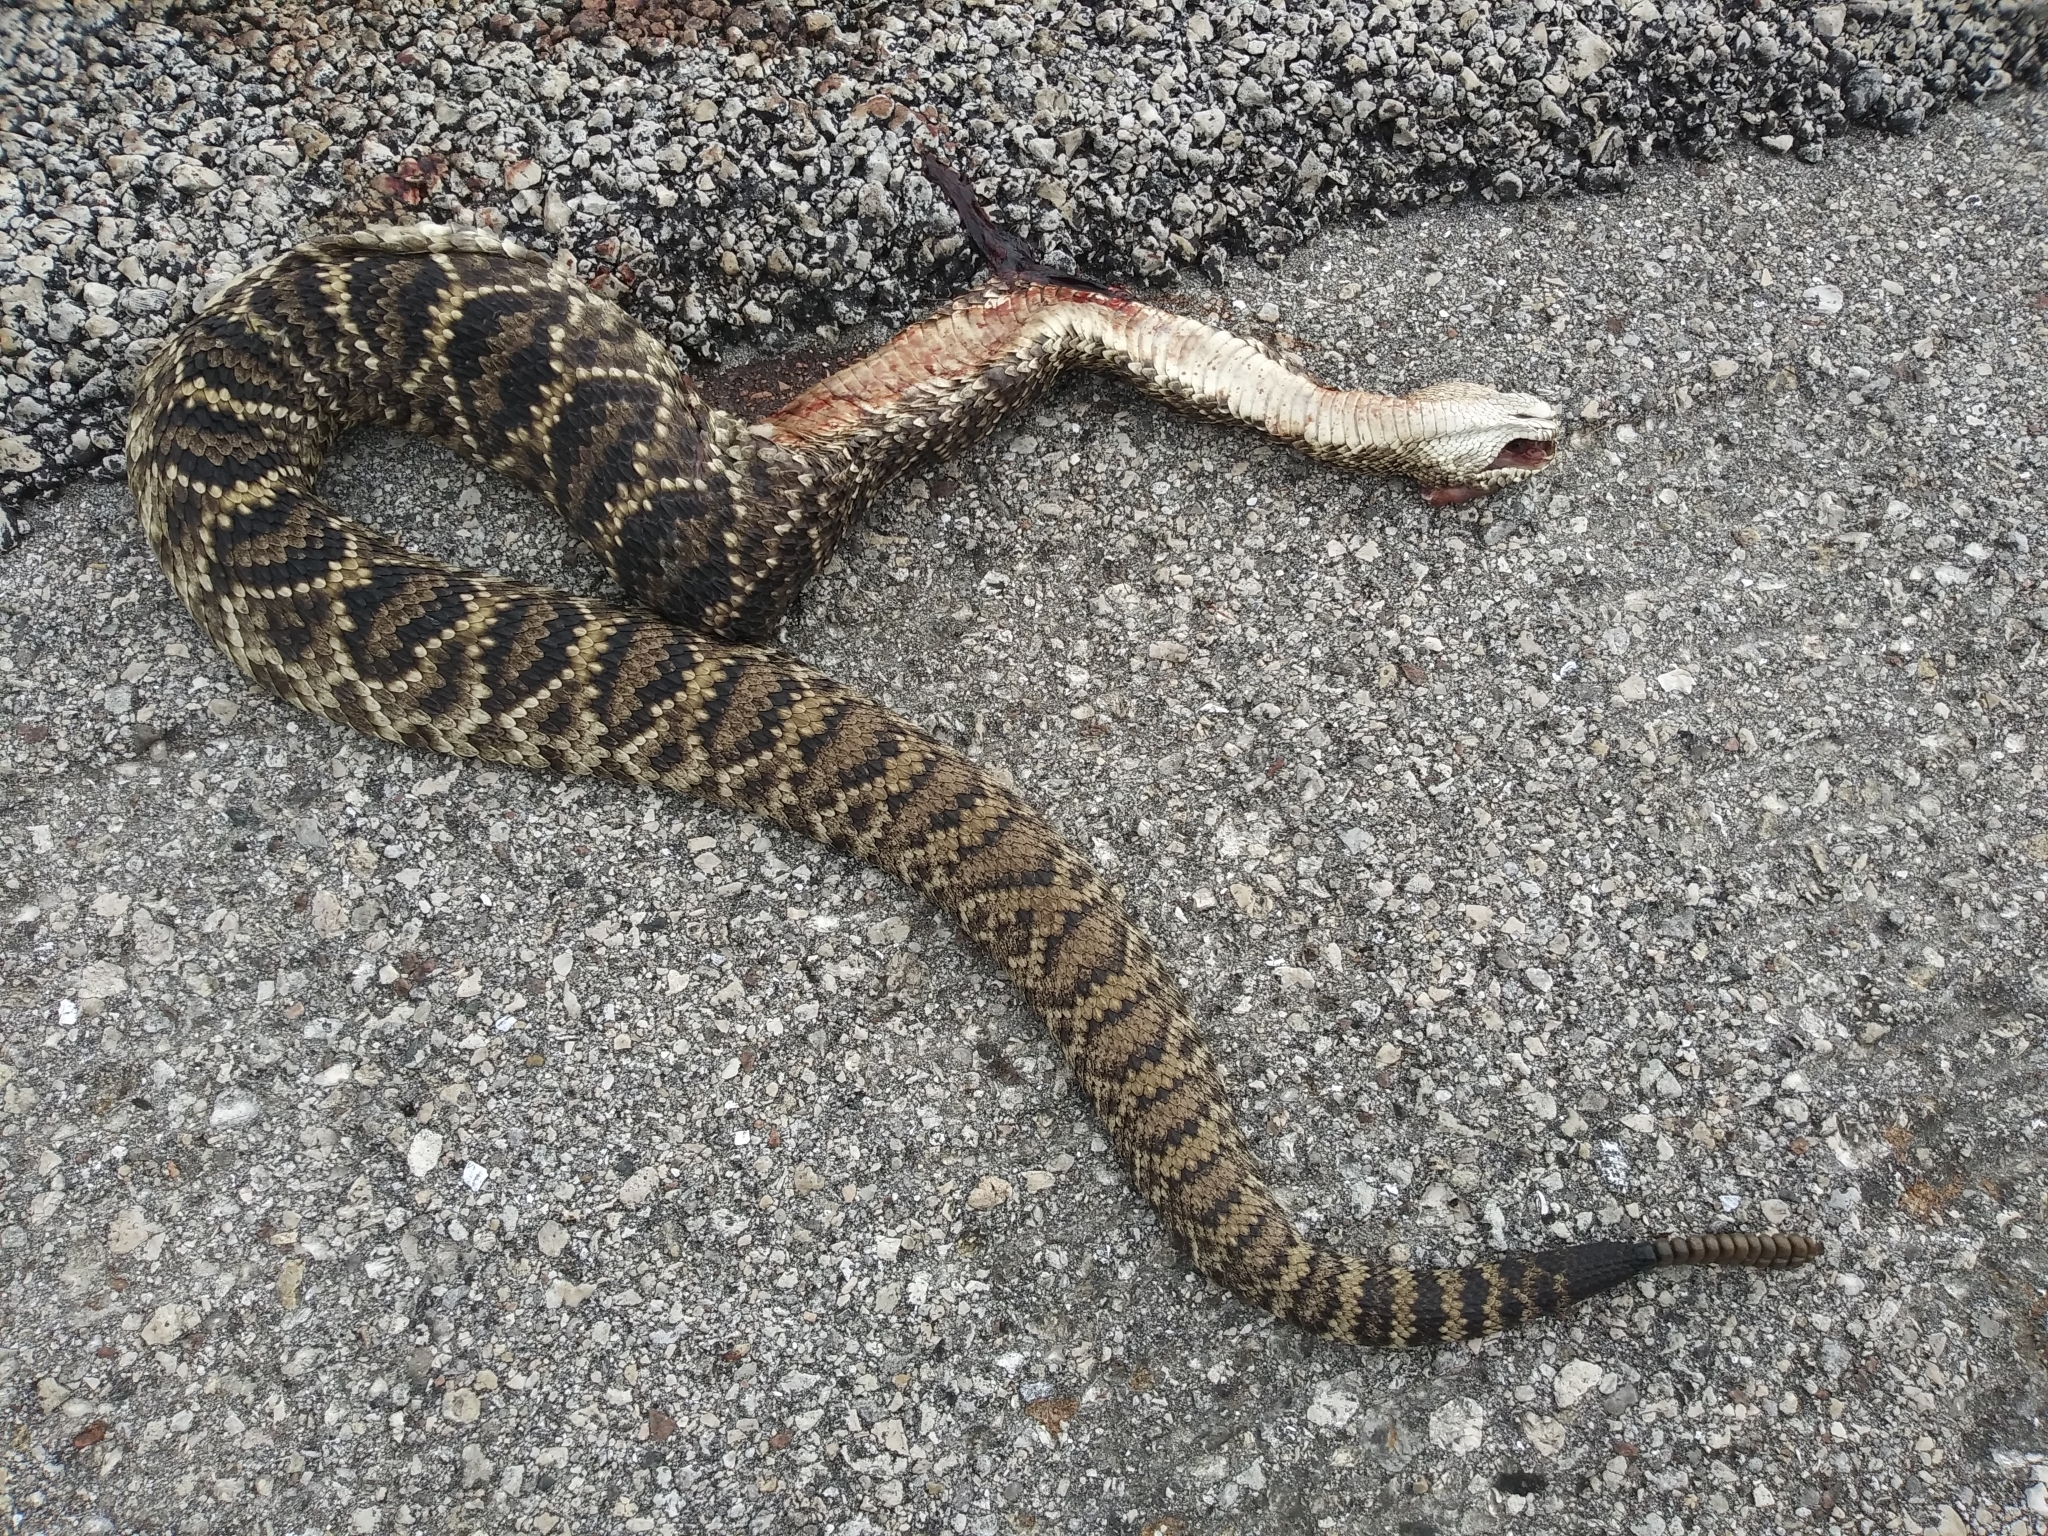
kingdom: Animalia
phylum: Chordata
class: Squamata
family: Viperidae
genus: Crotalus
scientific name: Crotalus adamanteus
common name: Eastern diamondback rattlesnake
